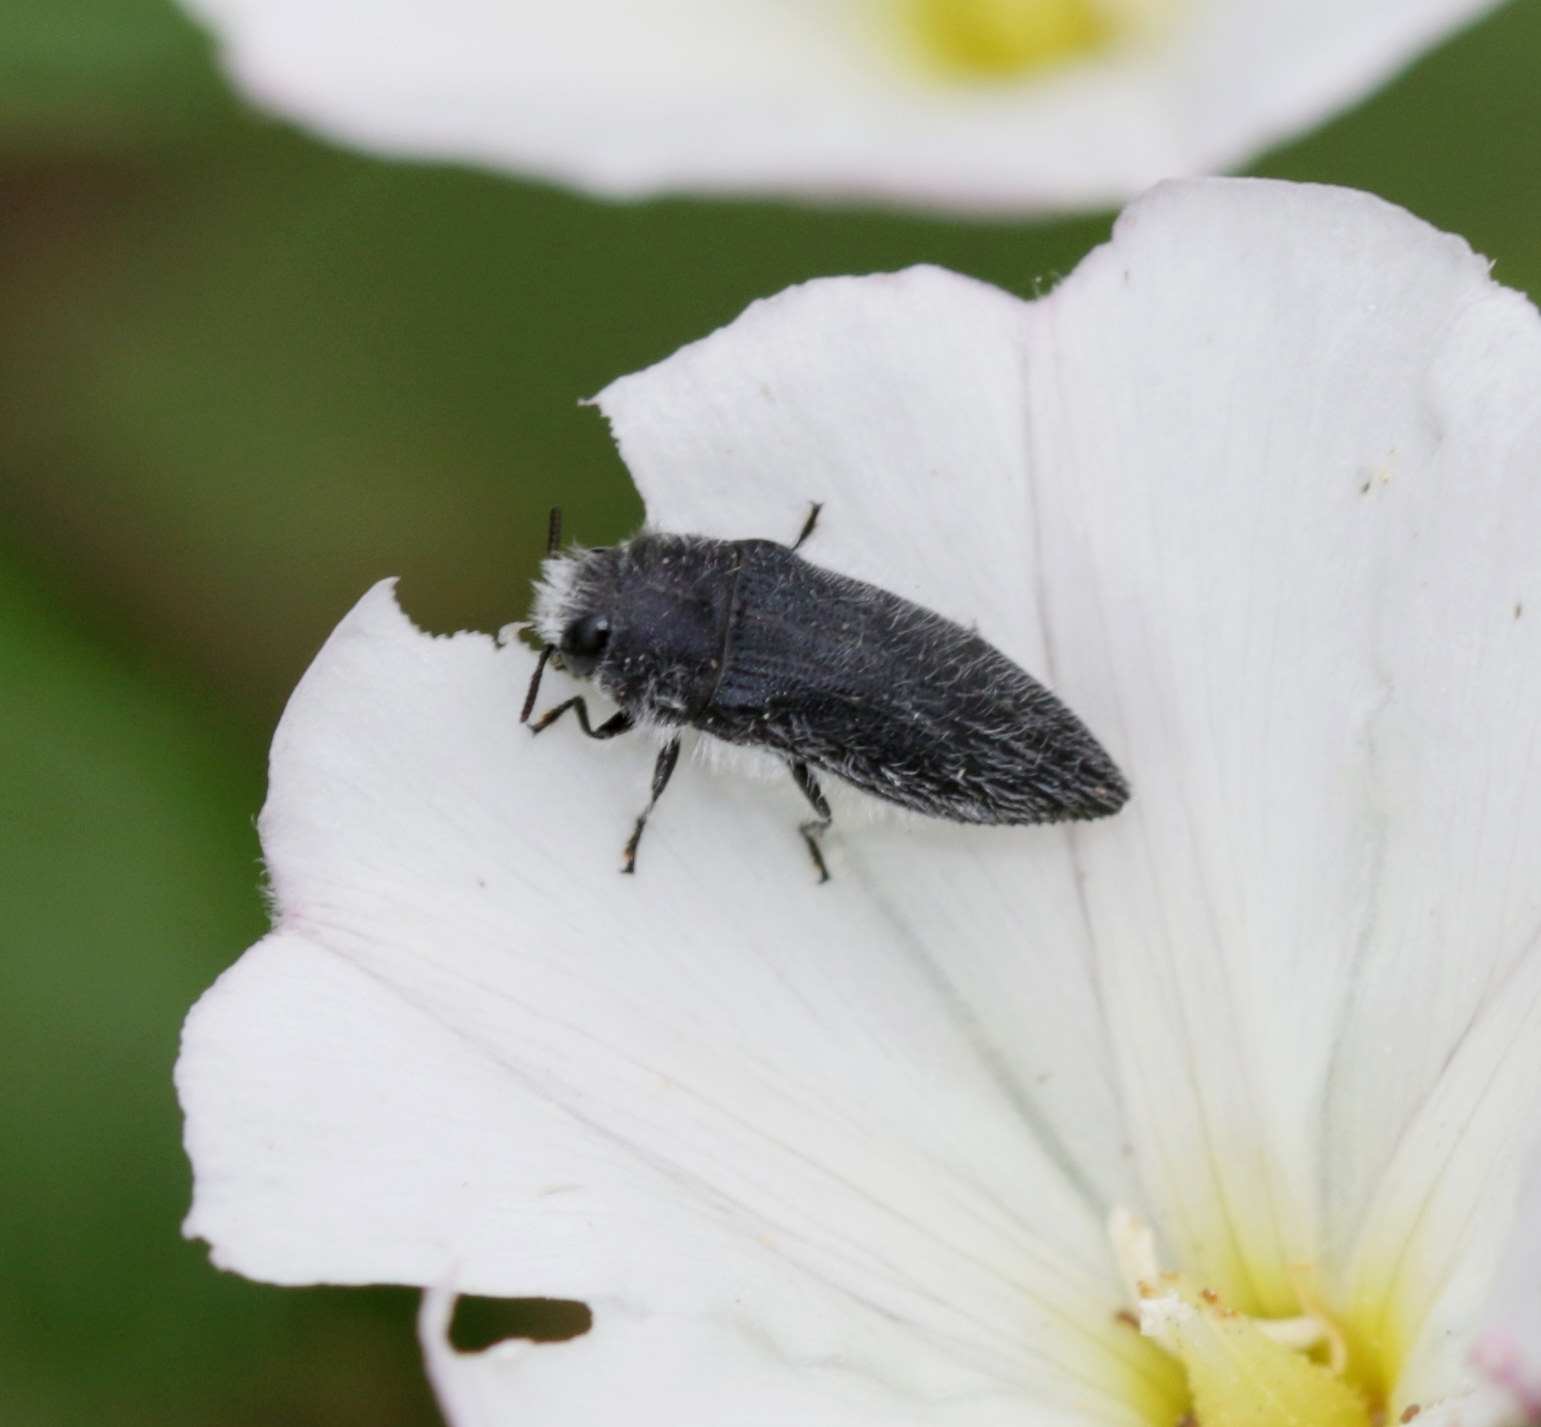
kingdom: Animalia
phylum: Arthropoda
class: Insecta
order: Coleoptera
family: Buprestidae
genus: Acmaeodera
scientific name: Acmaeodera cylindrica
